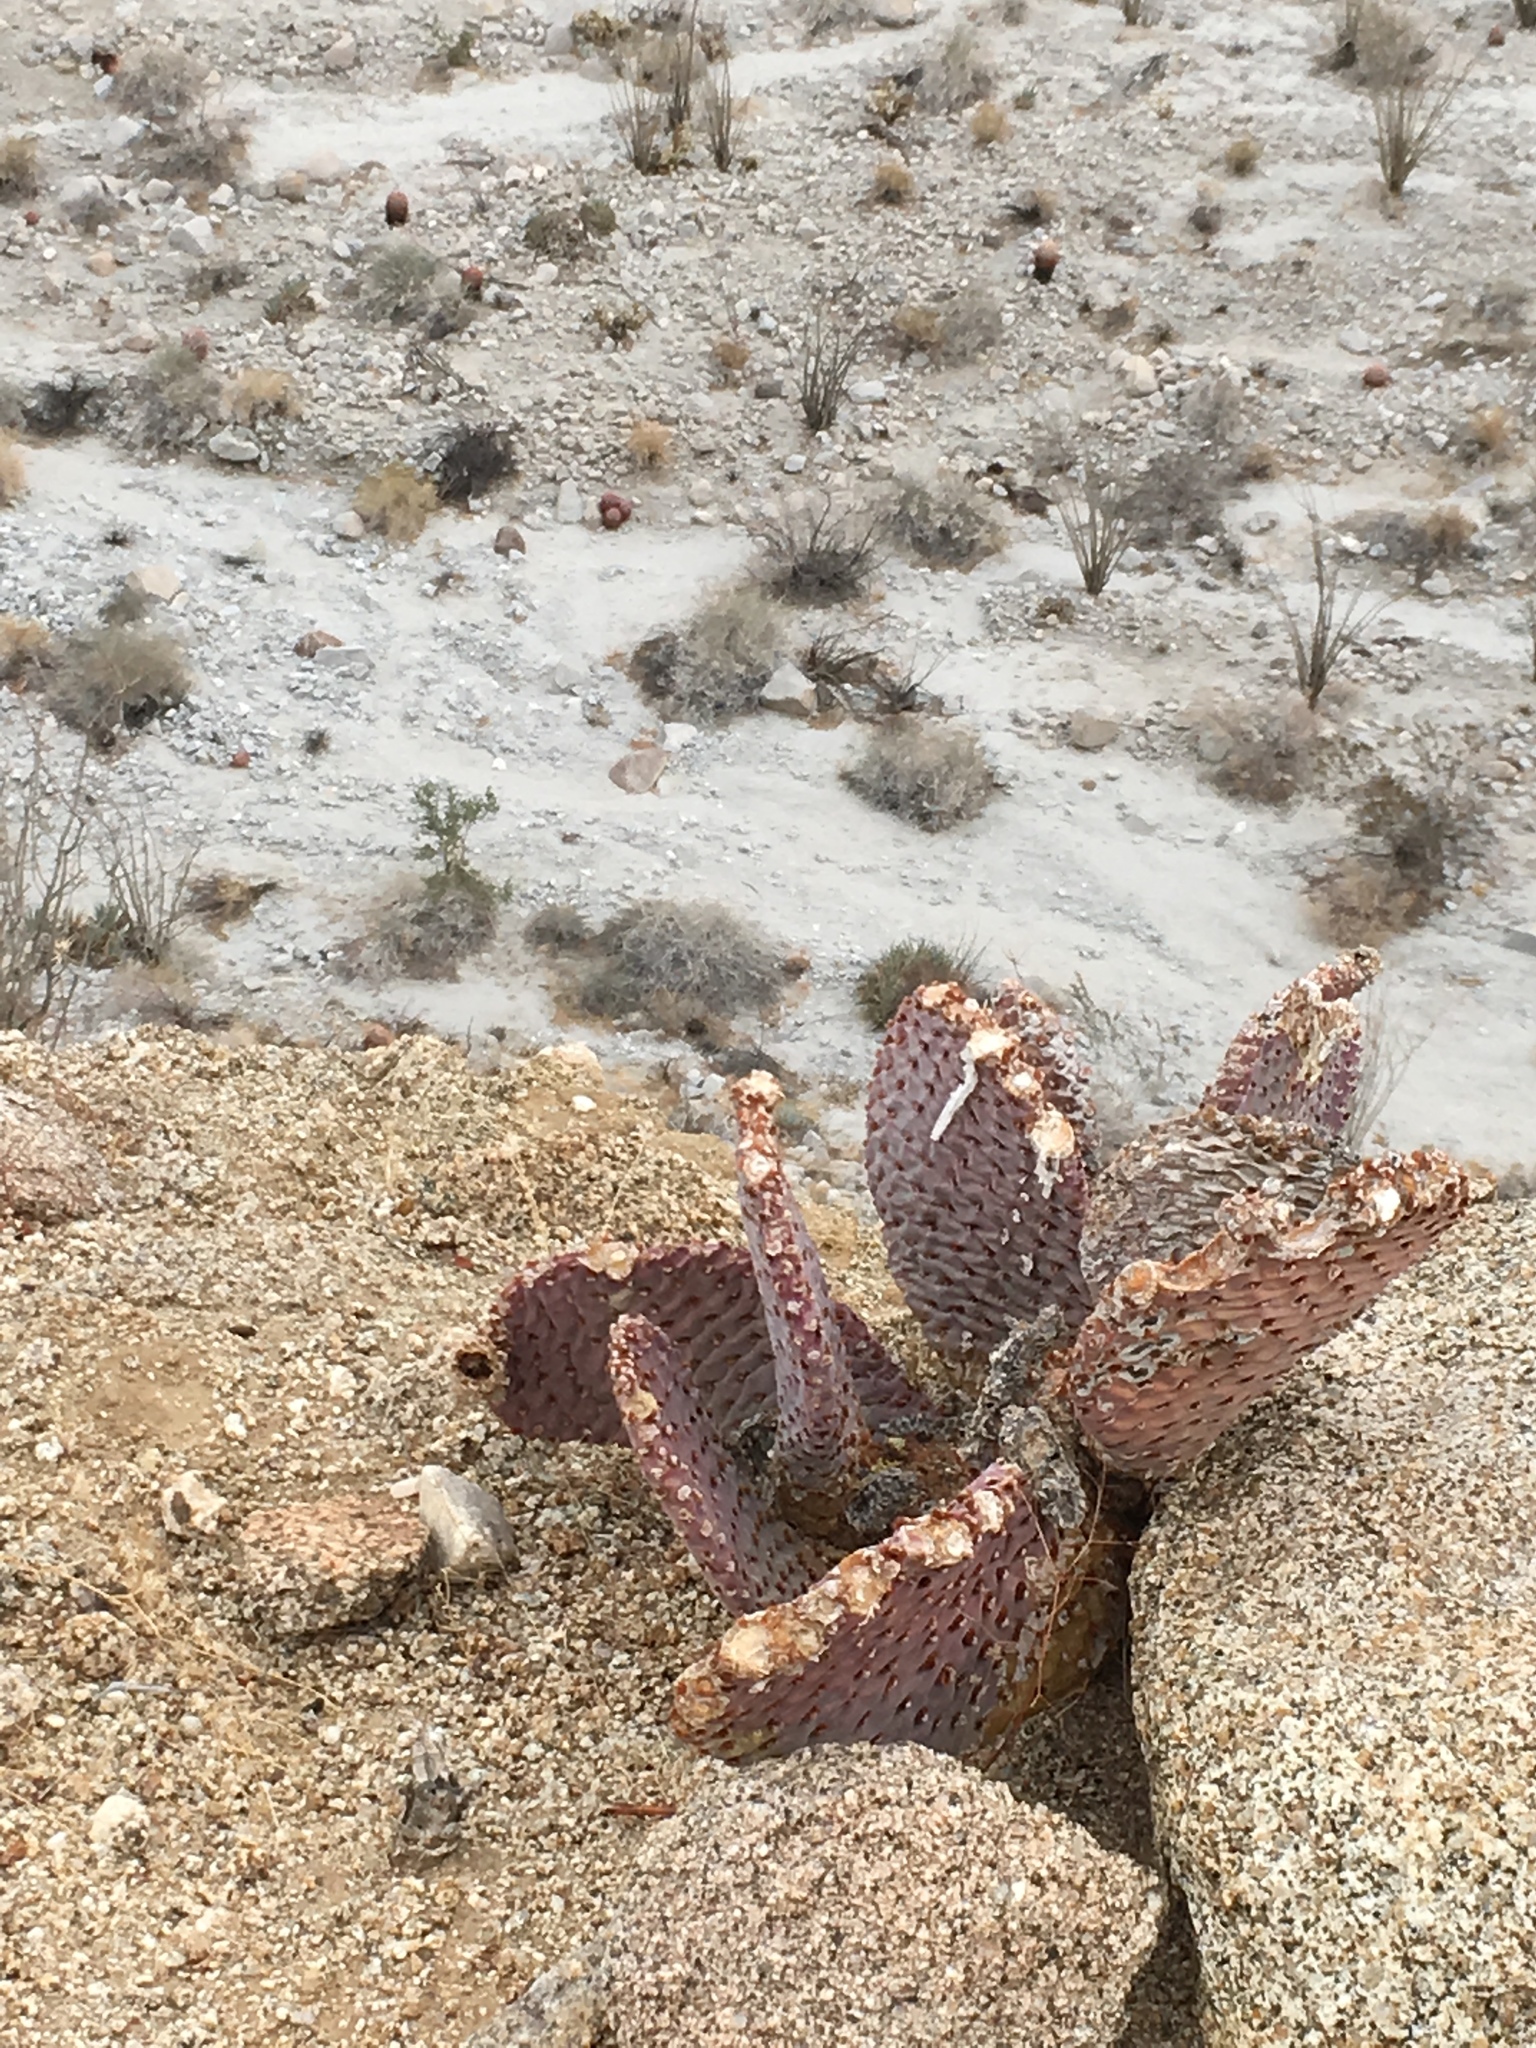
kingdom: Plantae
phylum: Tracheophyta
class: Magnoliopsida
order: Caryophyllales
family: Cactaceae
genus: Opuntia
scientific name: Opuntia basilaris
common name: Beavertail prickly-pear
